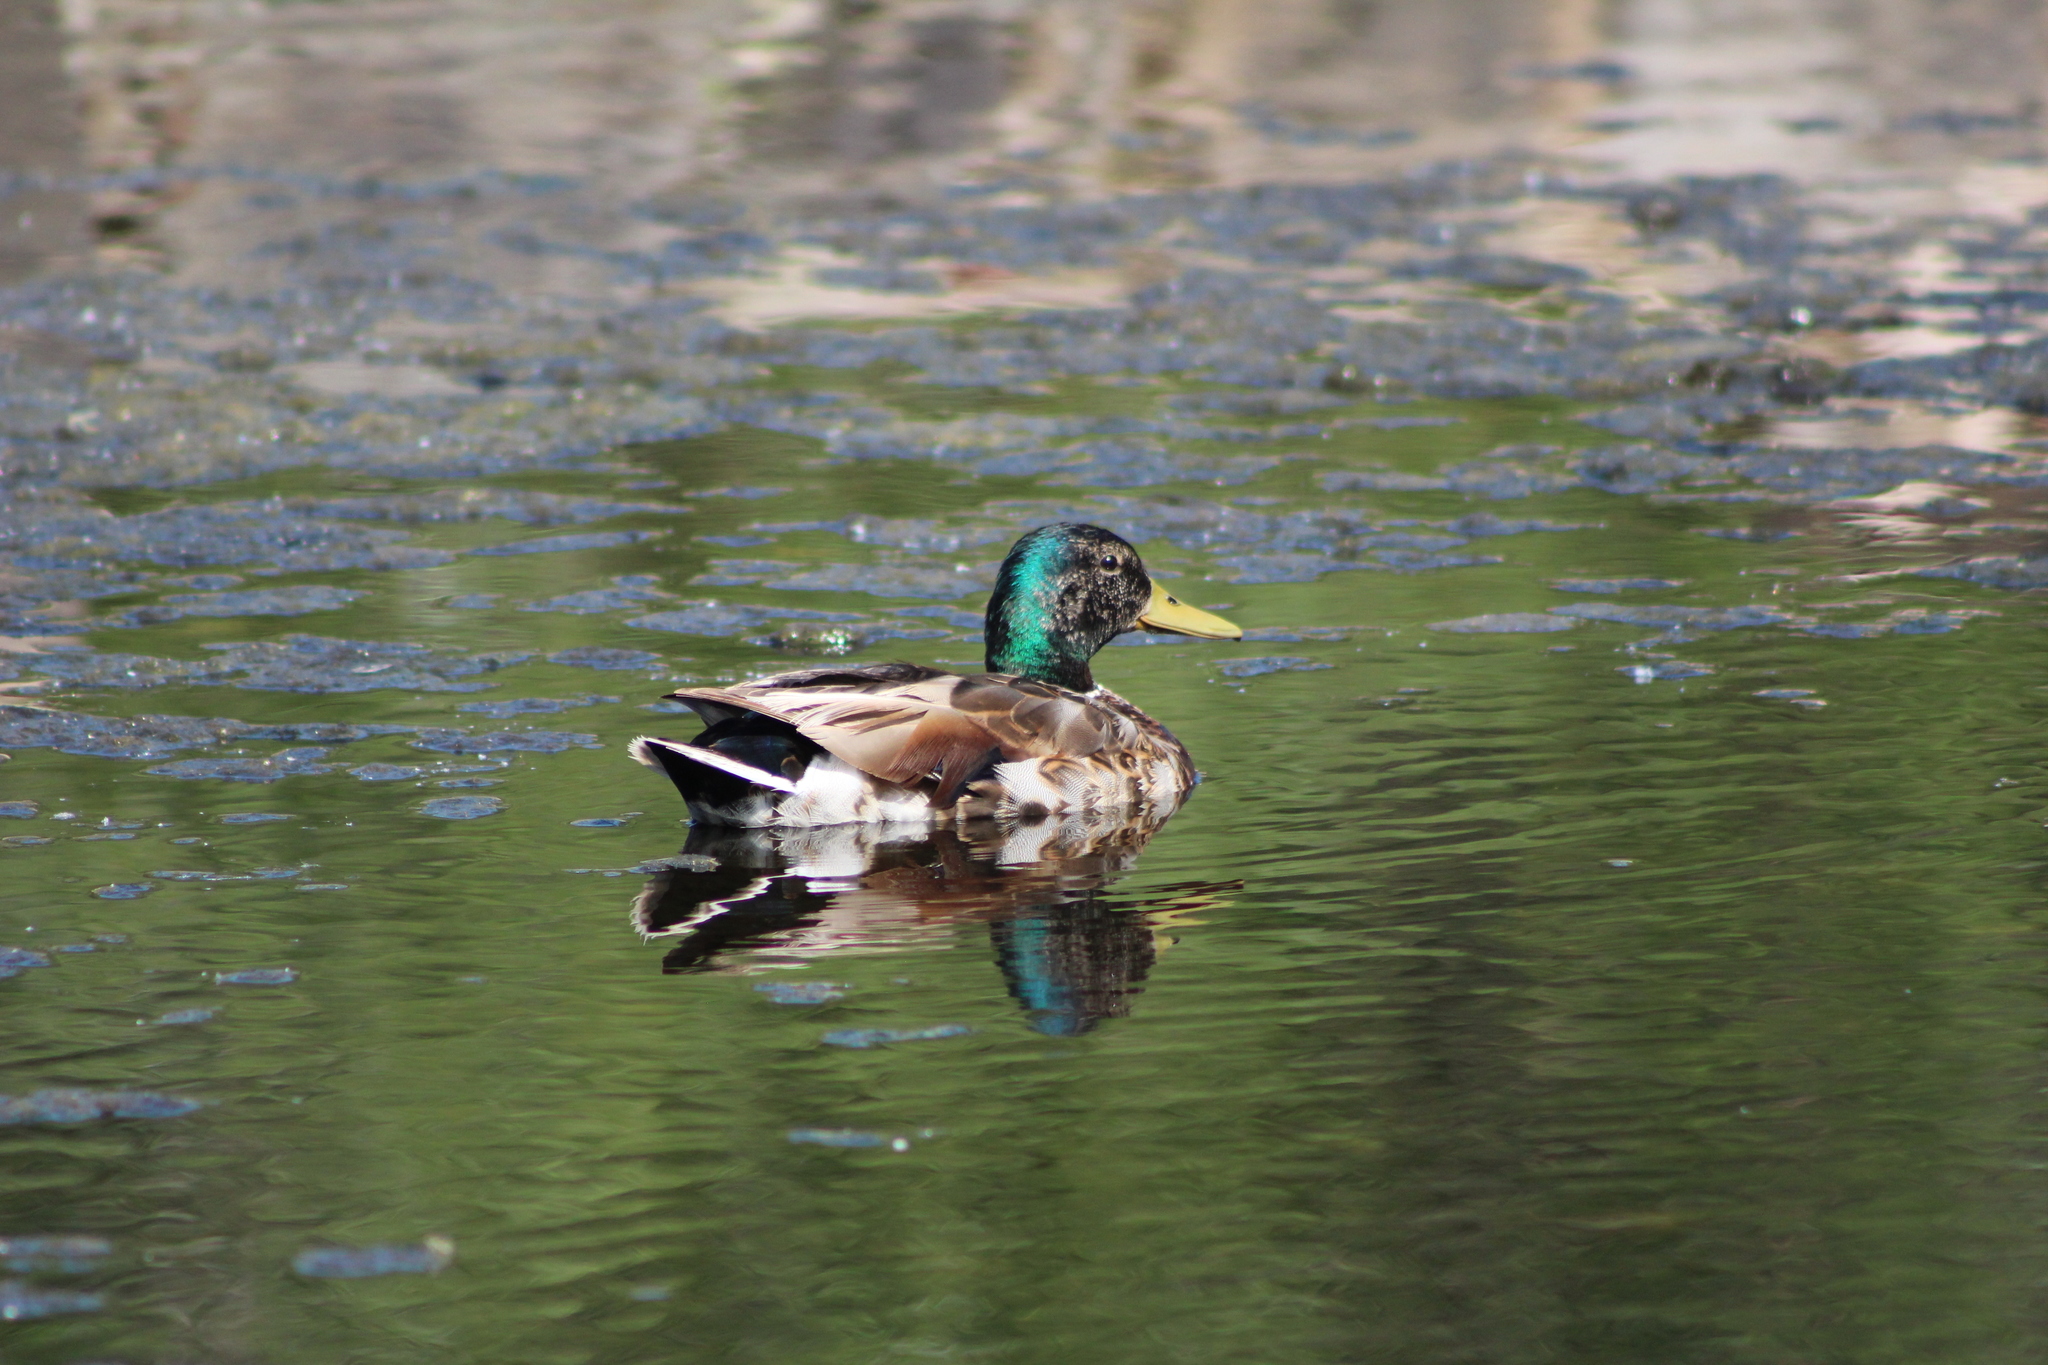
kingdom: Animalia
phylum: Chordata
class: Aves
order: Anseriformes
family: Anatidae
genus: Anas
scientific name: Anas platyrhynchos
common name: Mallard
